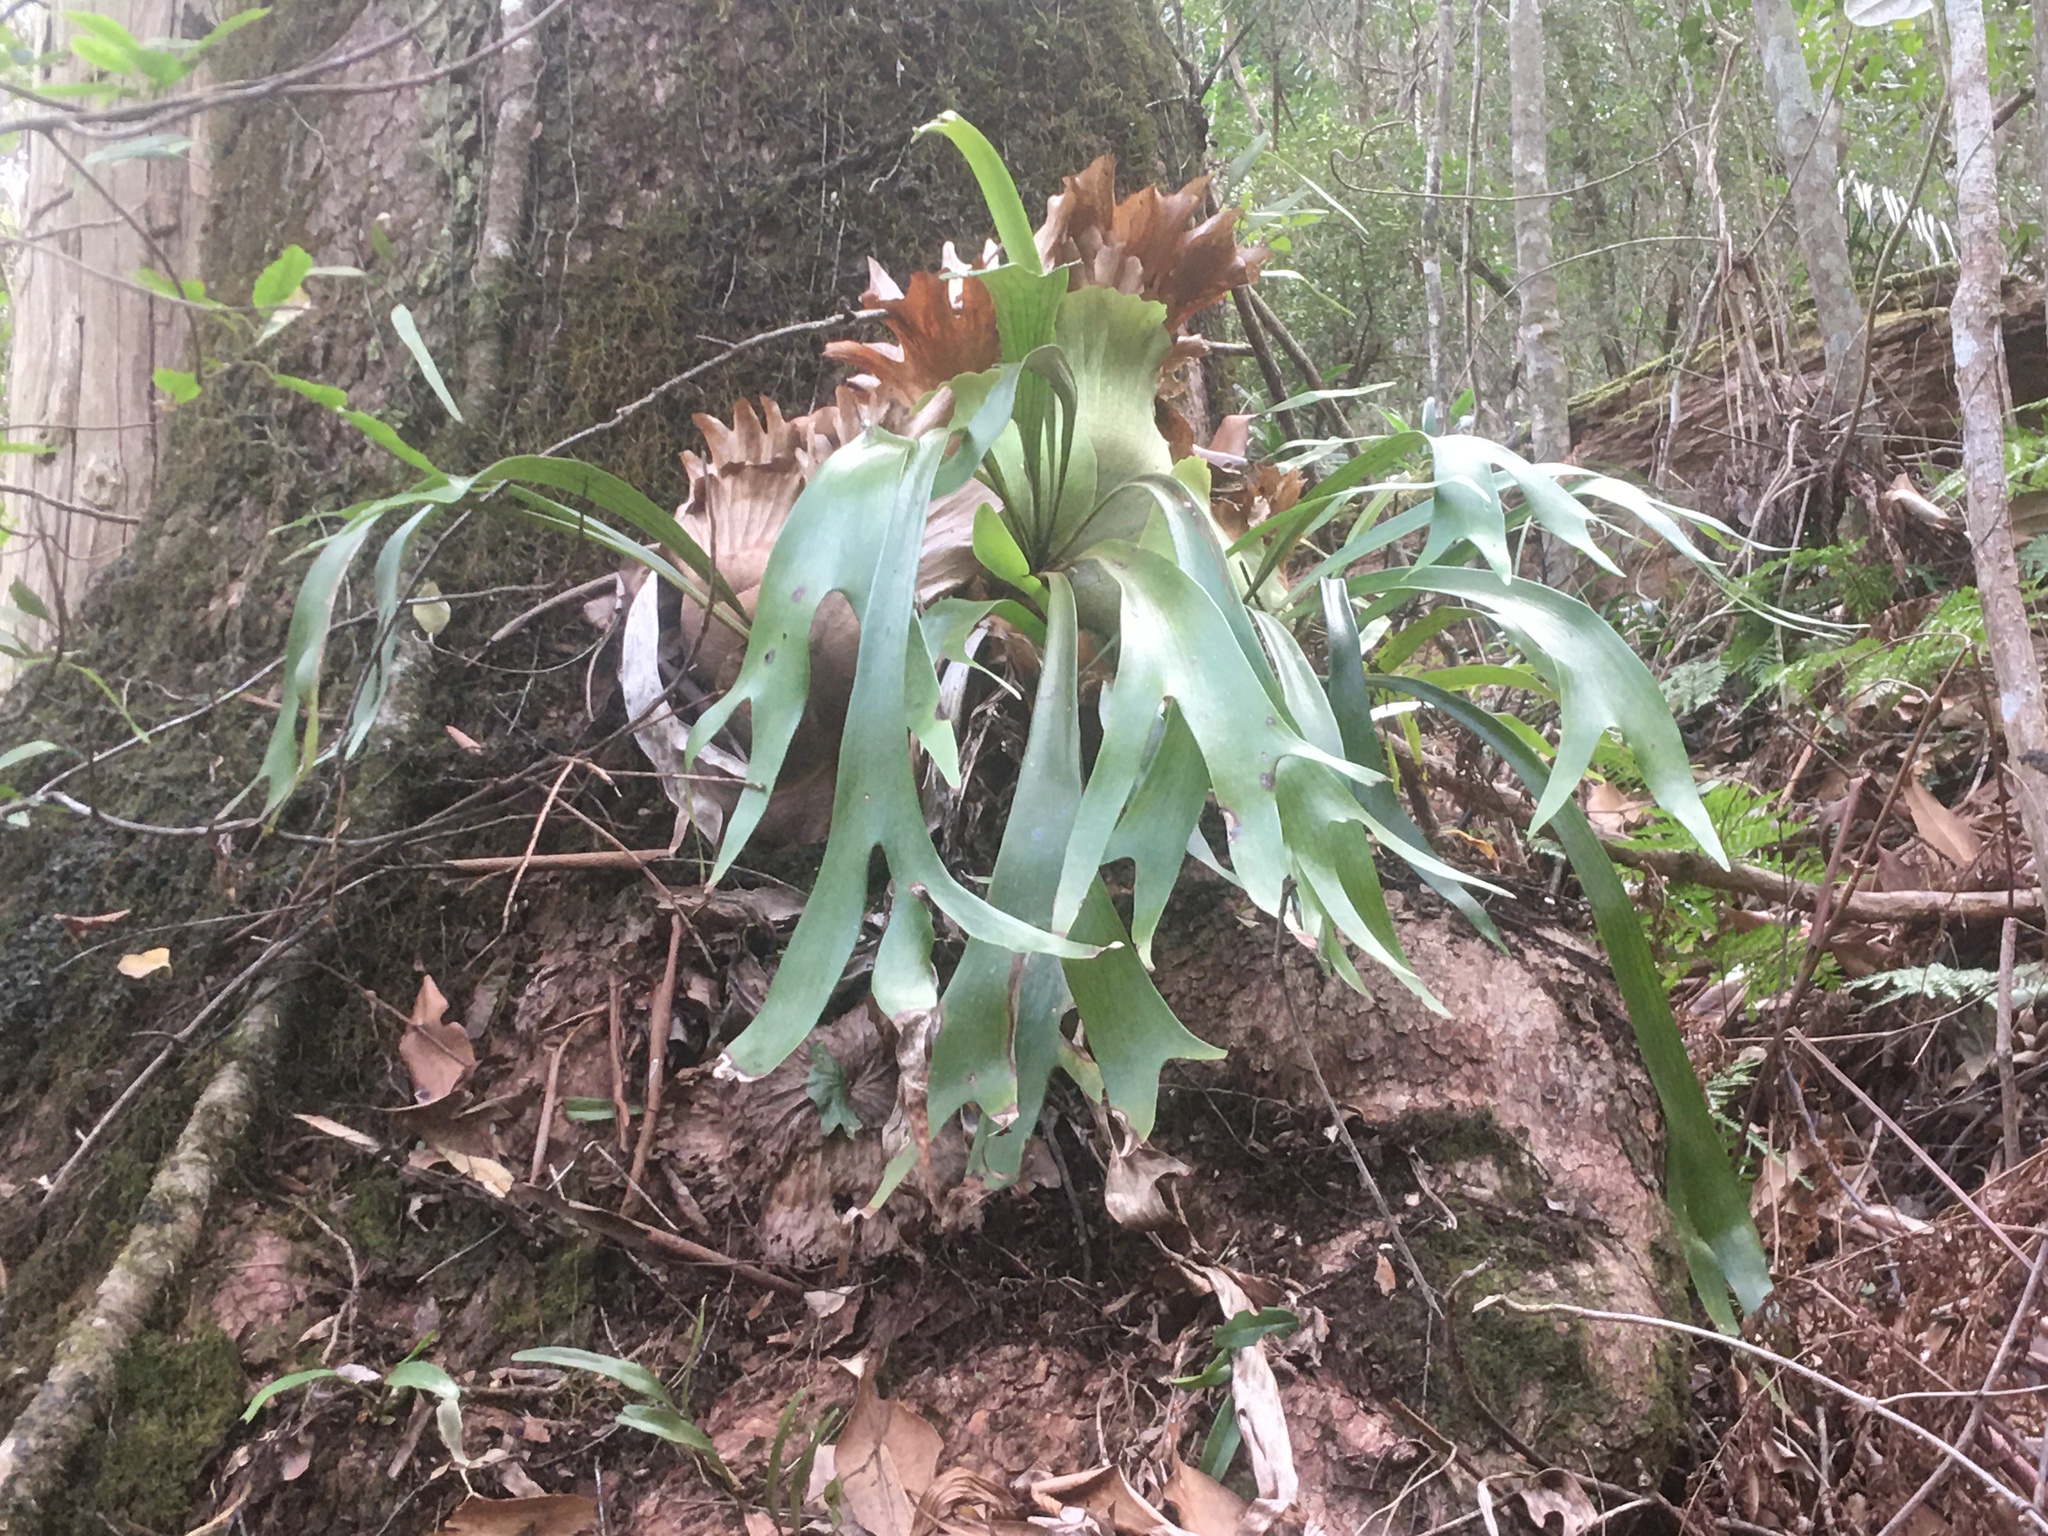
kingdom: Plantae
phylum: Tracheophyta
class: Polypodiopsida
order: Polypodiales
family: Polypodiaceae
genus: Platycerium
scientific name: Platycerium bifurcatum
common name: Elkhorn fern
